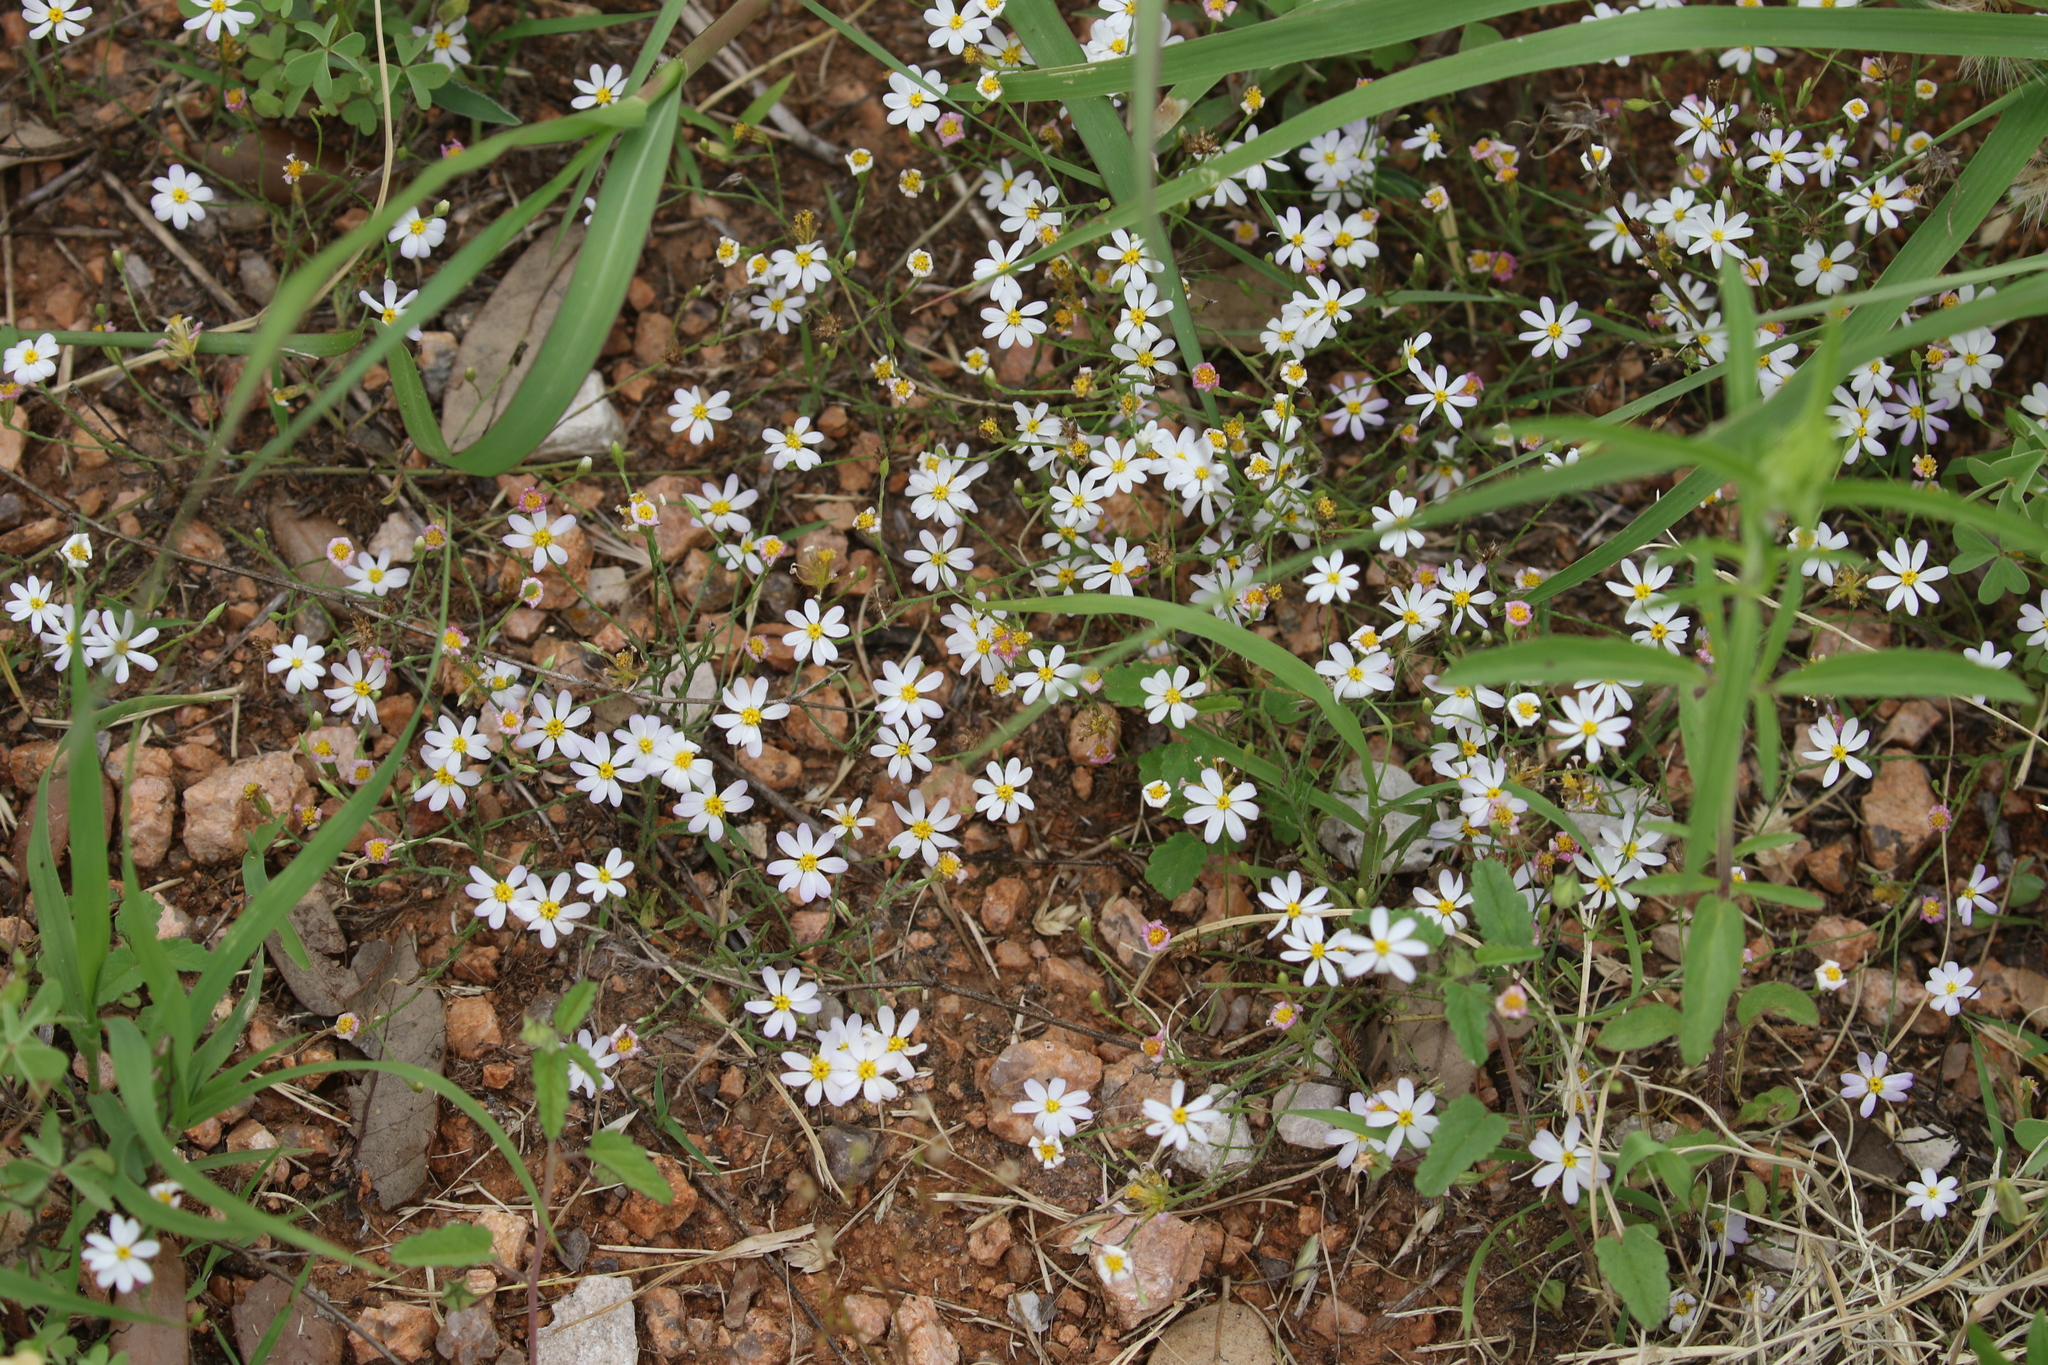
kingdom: Plantae
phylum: Tracheophyta
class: Magnoliopsida
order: Asterales
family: Asteraceae
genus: Chaetopappa
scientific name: Chaetopappa asteroides
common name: Tiny lazy daisy
